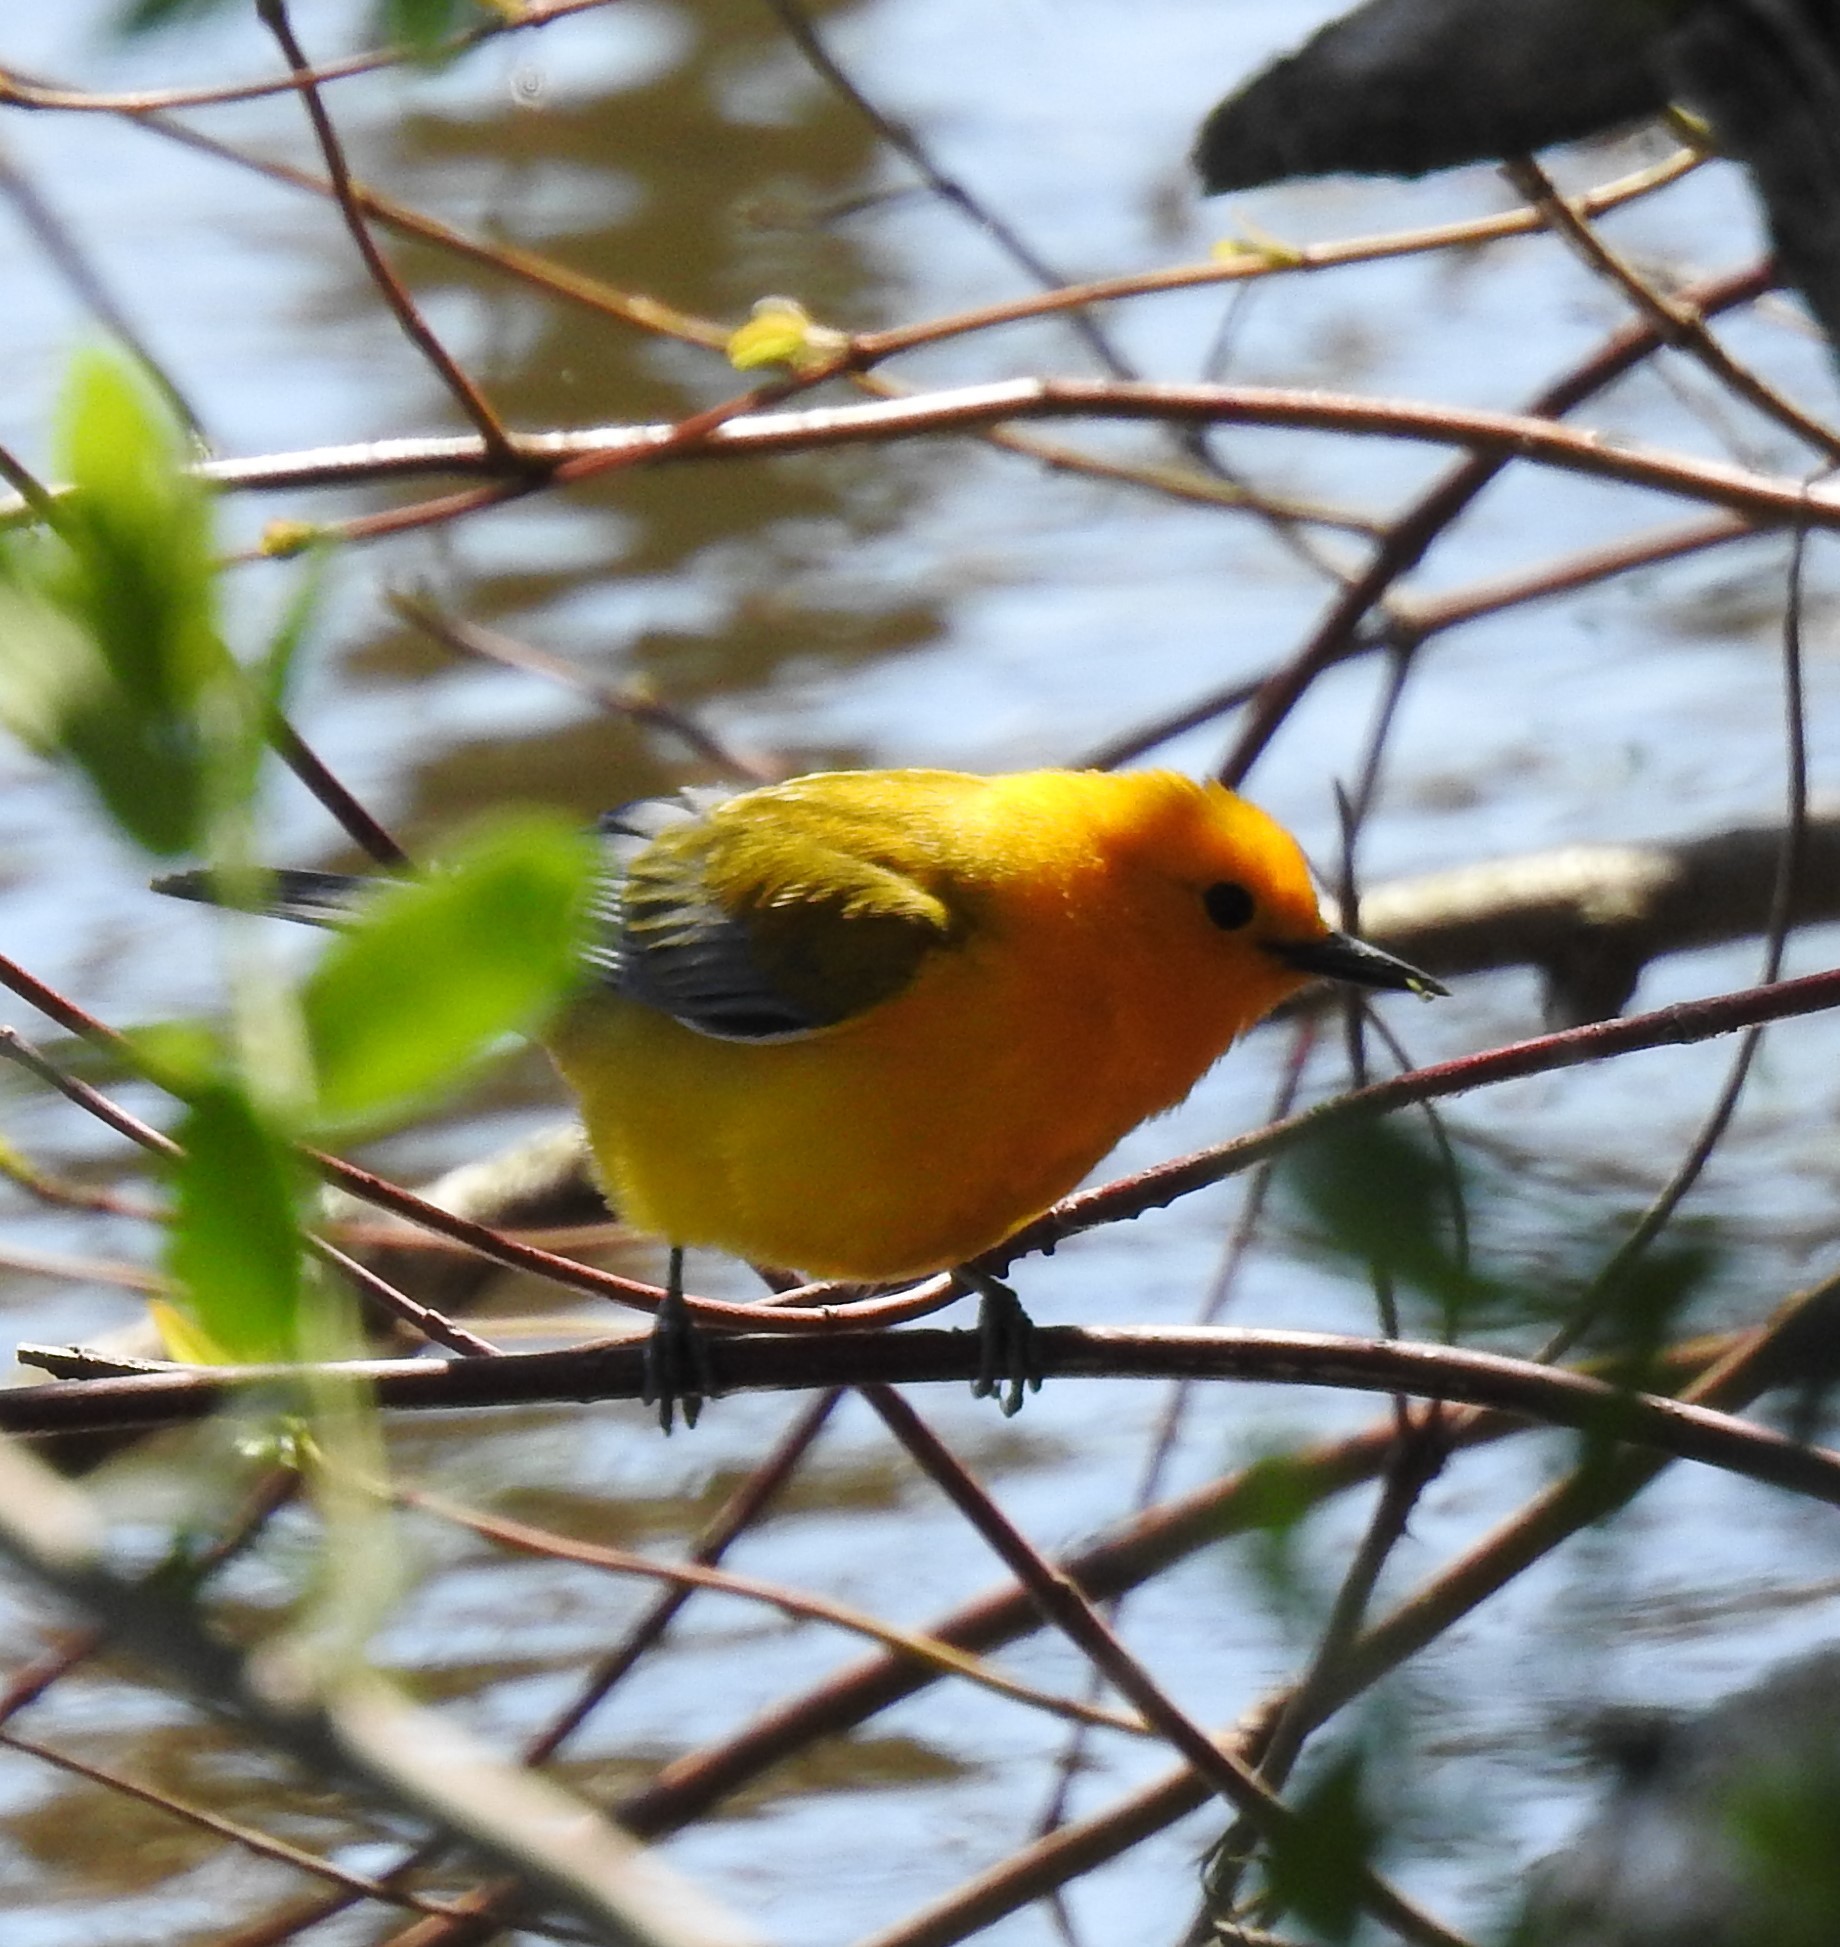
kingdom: Animalia
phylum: Chordata
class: Aves
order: Passeriformes
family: Parulidae
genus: Protonotaria
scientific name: Protonotaria citrea
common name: Prothonotary warbler
